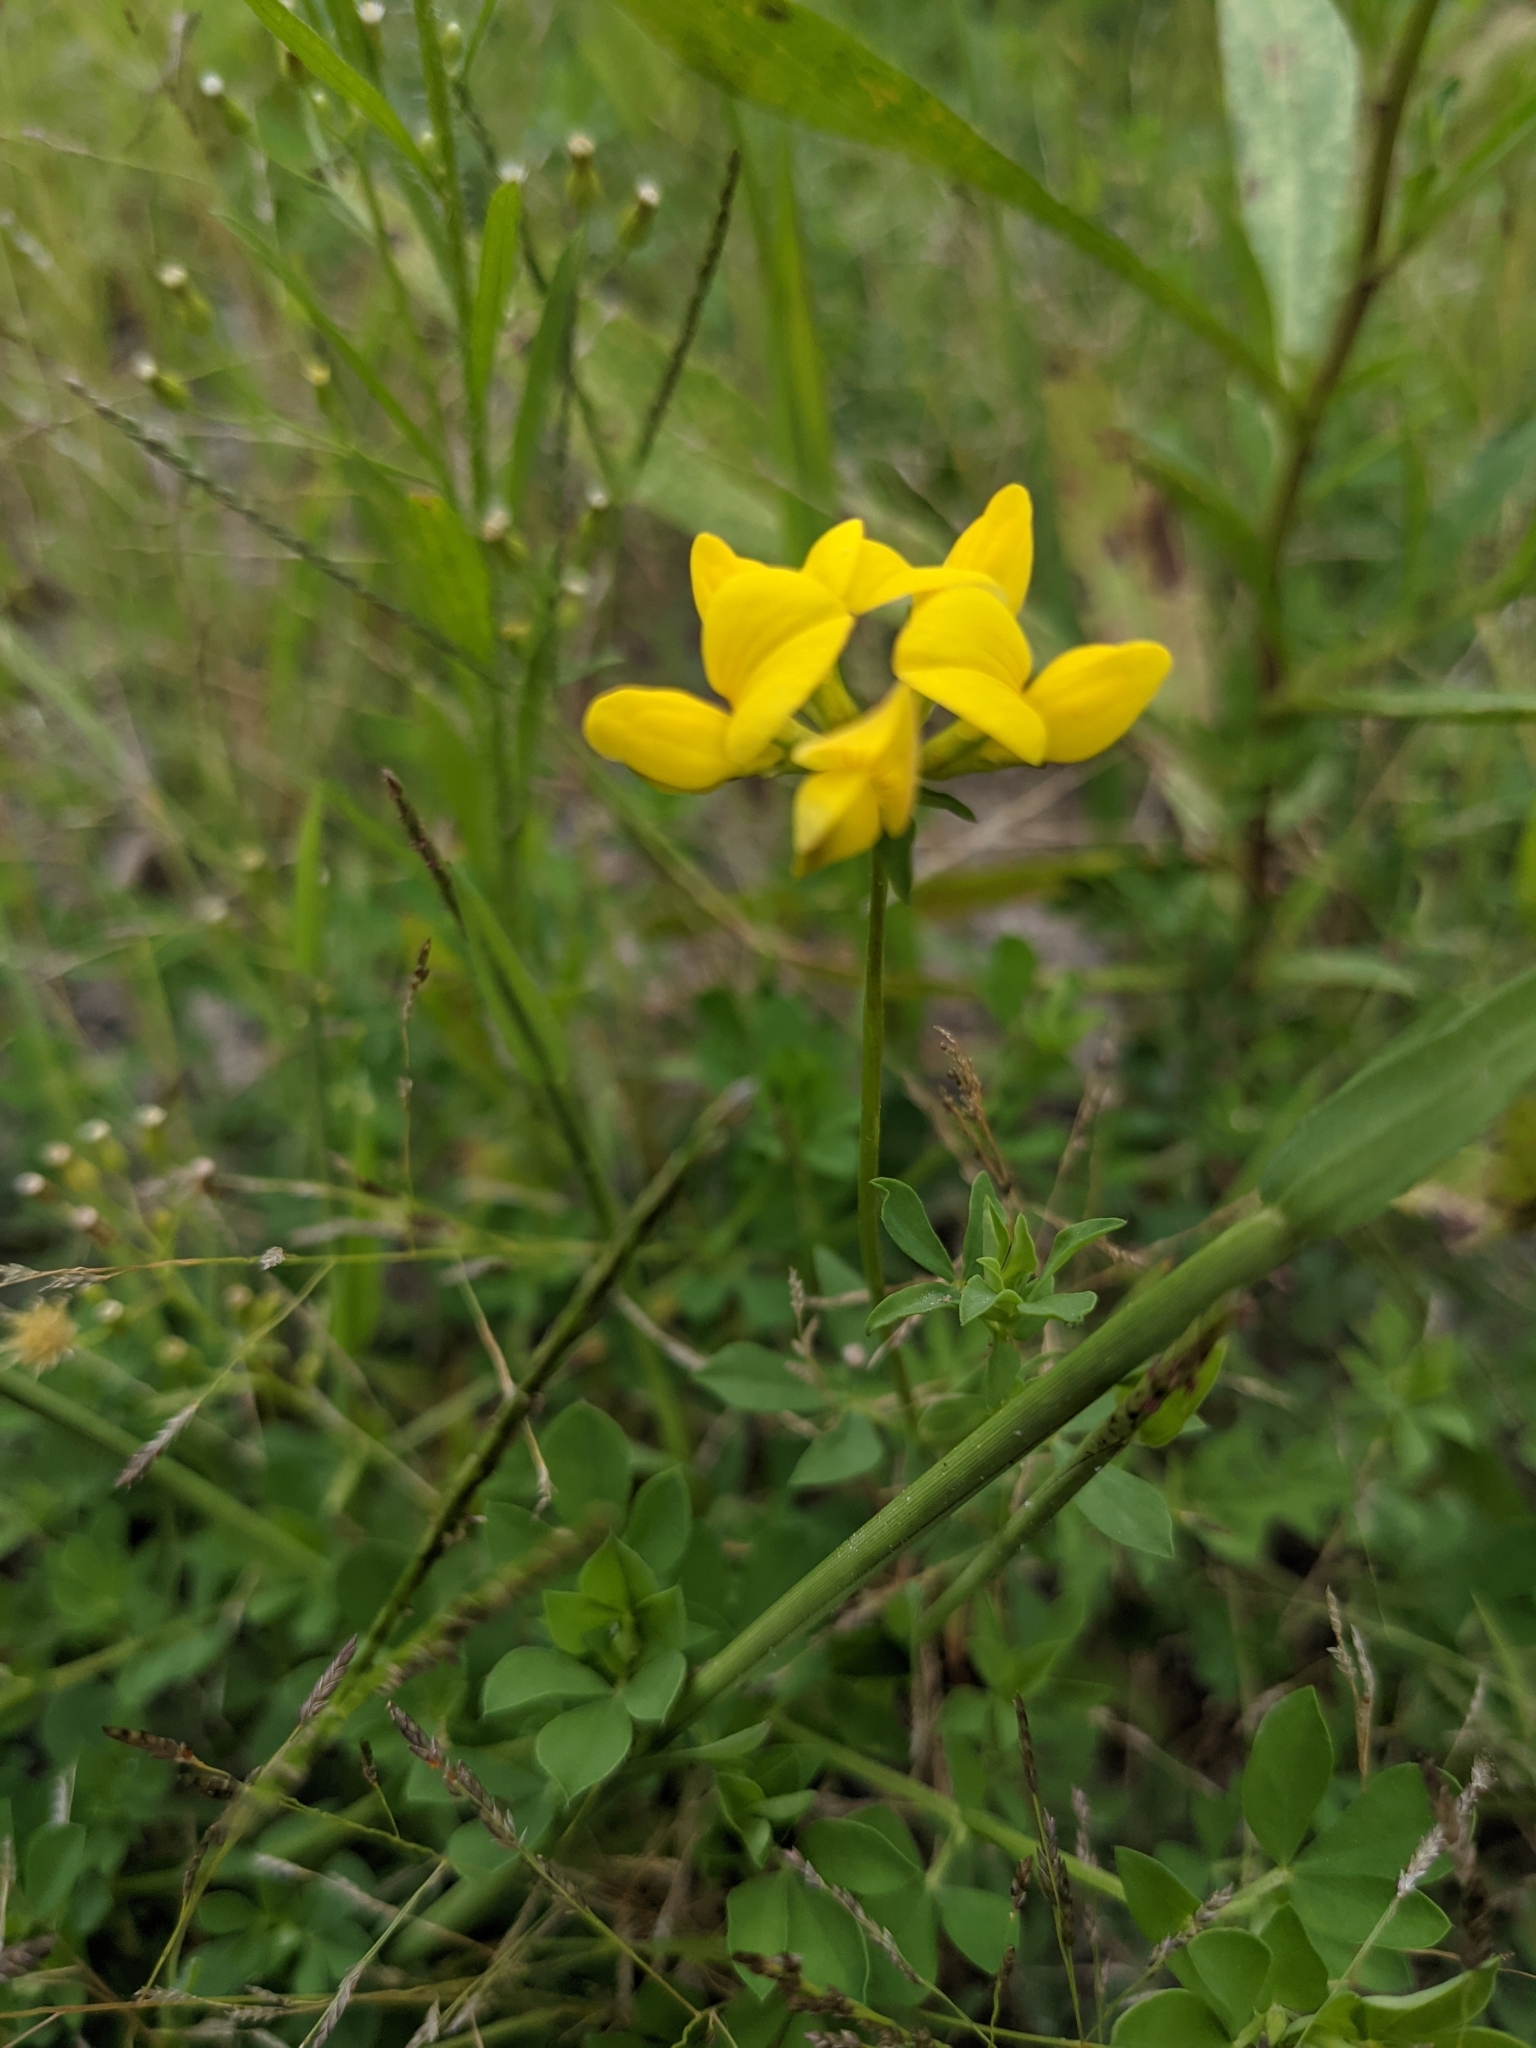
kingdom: Plantae
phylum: Tracheophyta
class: Magnoliopsida
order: Fabales
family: Fabaceae
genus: Lotus
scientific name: Lotus corniculatus
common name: Common bird's-foot-trefoil
